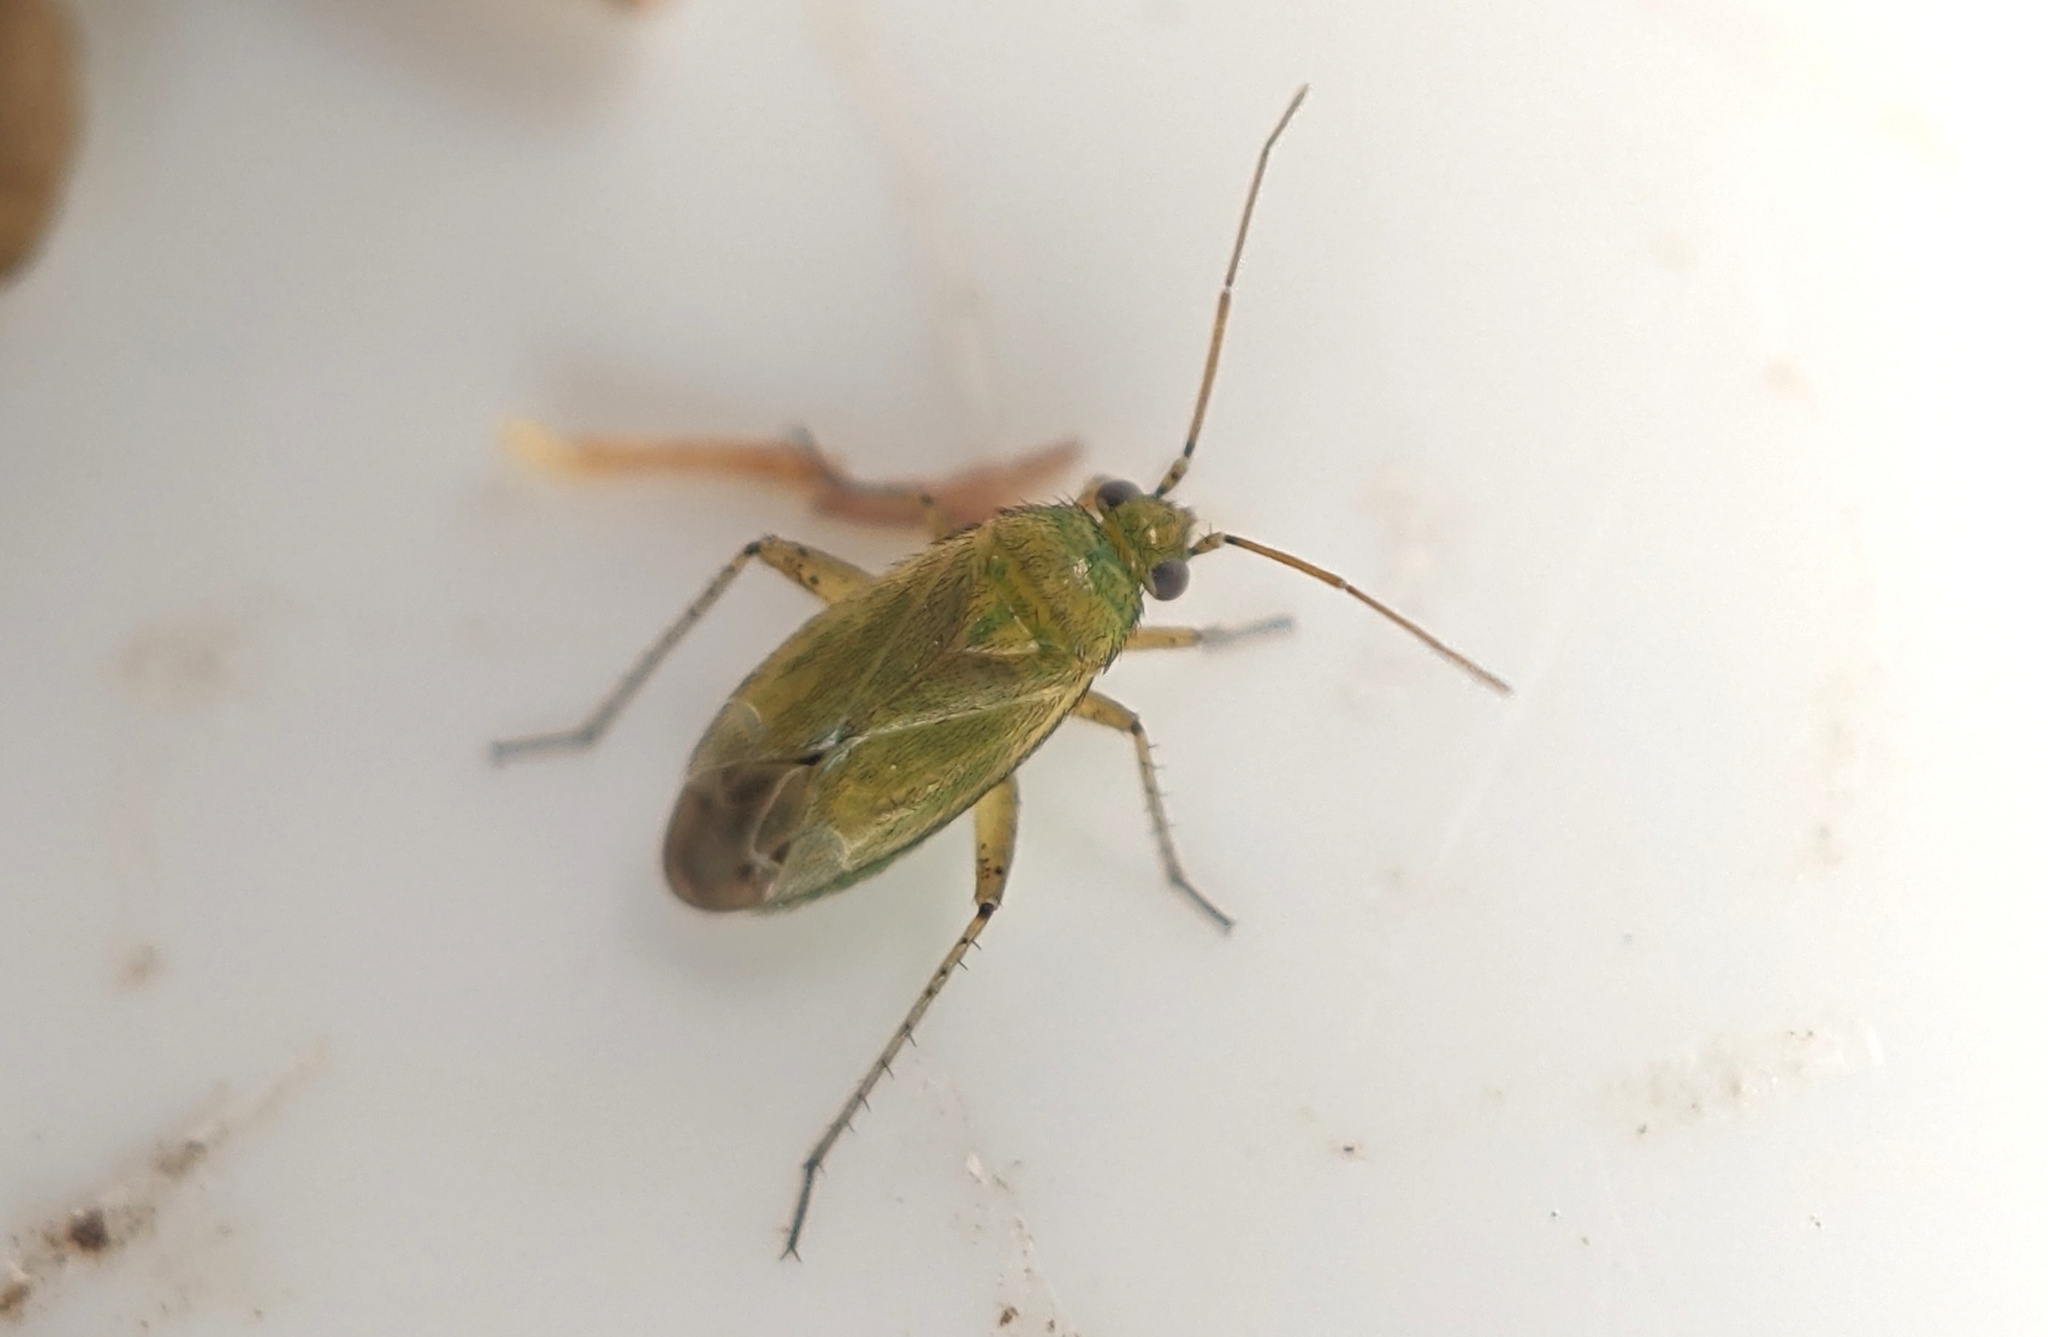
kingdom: Animalia
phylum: Arthropoda
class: Insecta
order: Hemiptera
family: Miridae
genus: Plagiognathus
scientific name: Plagiognathus chrysanthemi
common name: Plant bug
